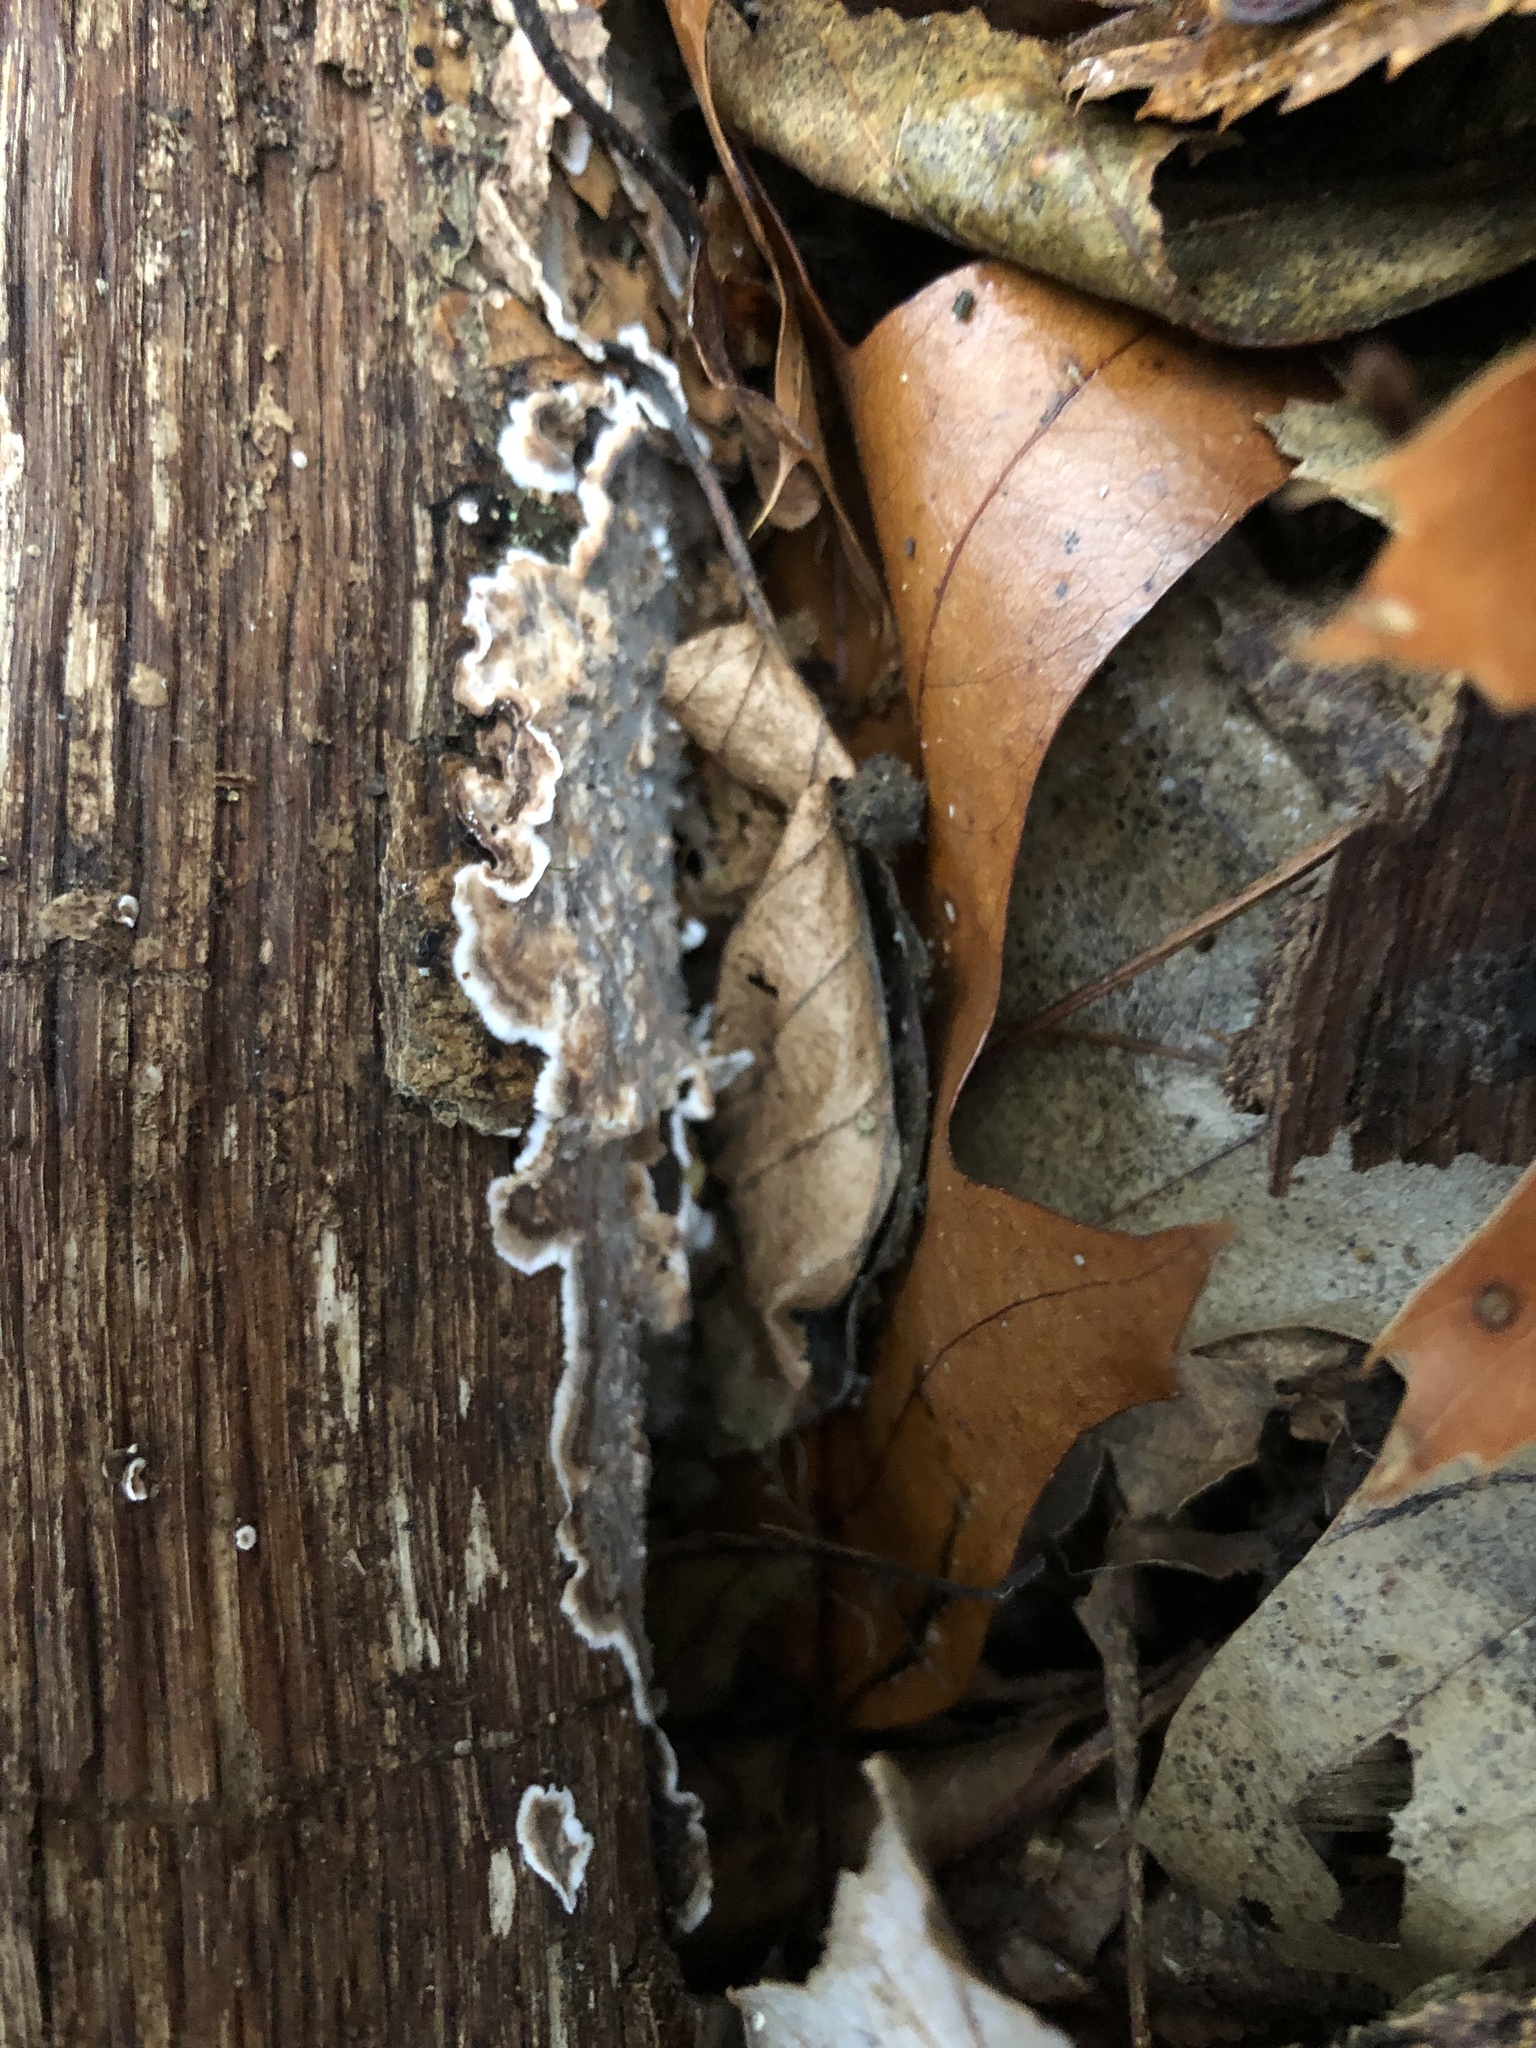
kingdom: Fungi
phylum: Basidiomycota
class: Agaricomycetes
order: Russulales
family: Peniophoraceae
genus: Peniophora
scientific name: Peniophora albobadia
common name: Giraffe spots
